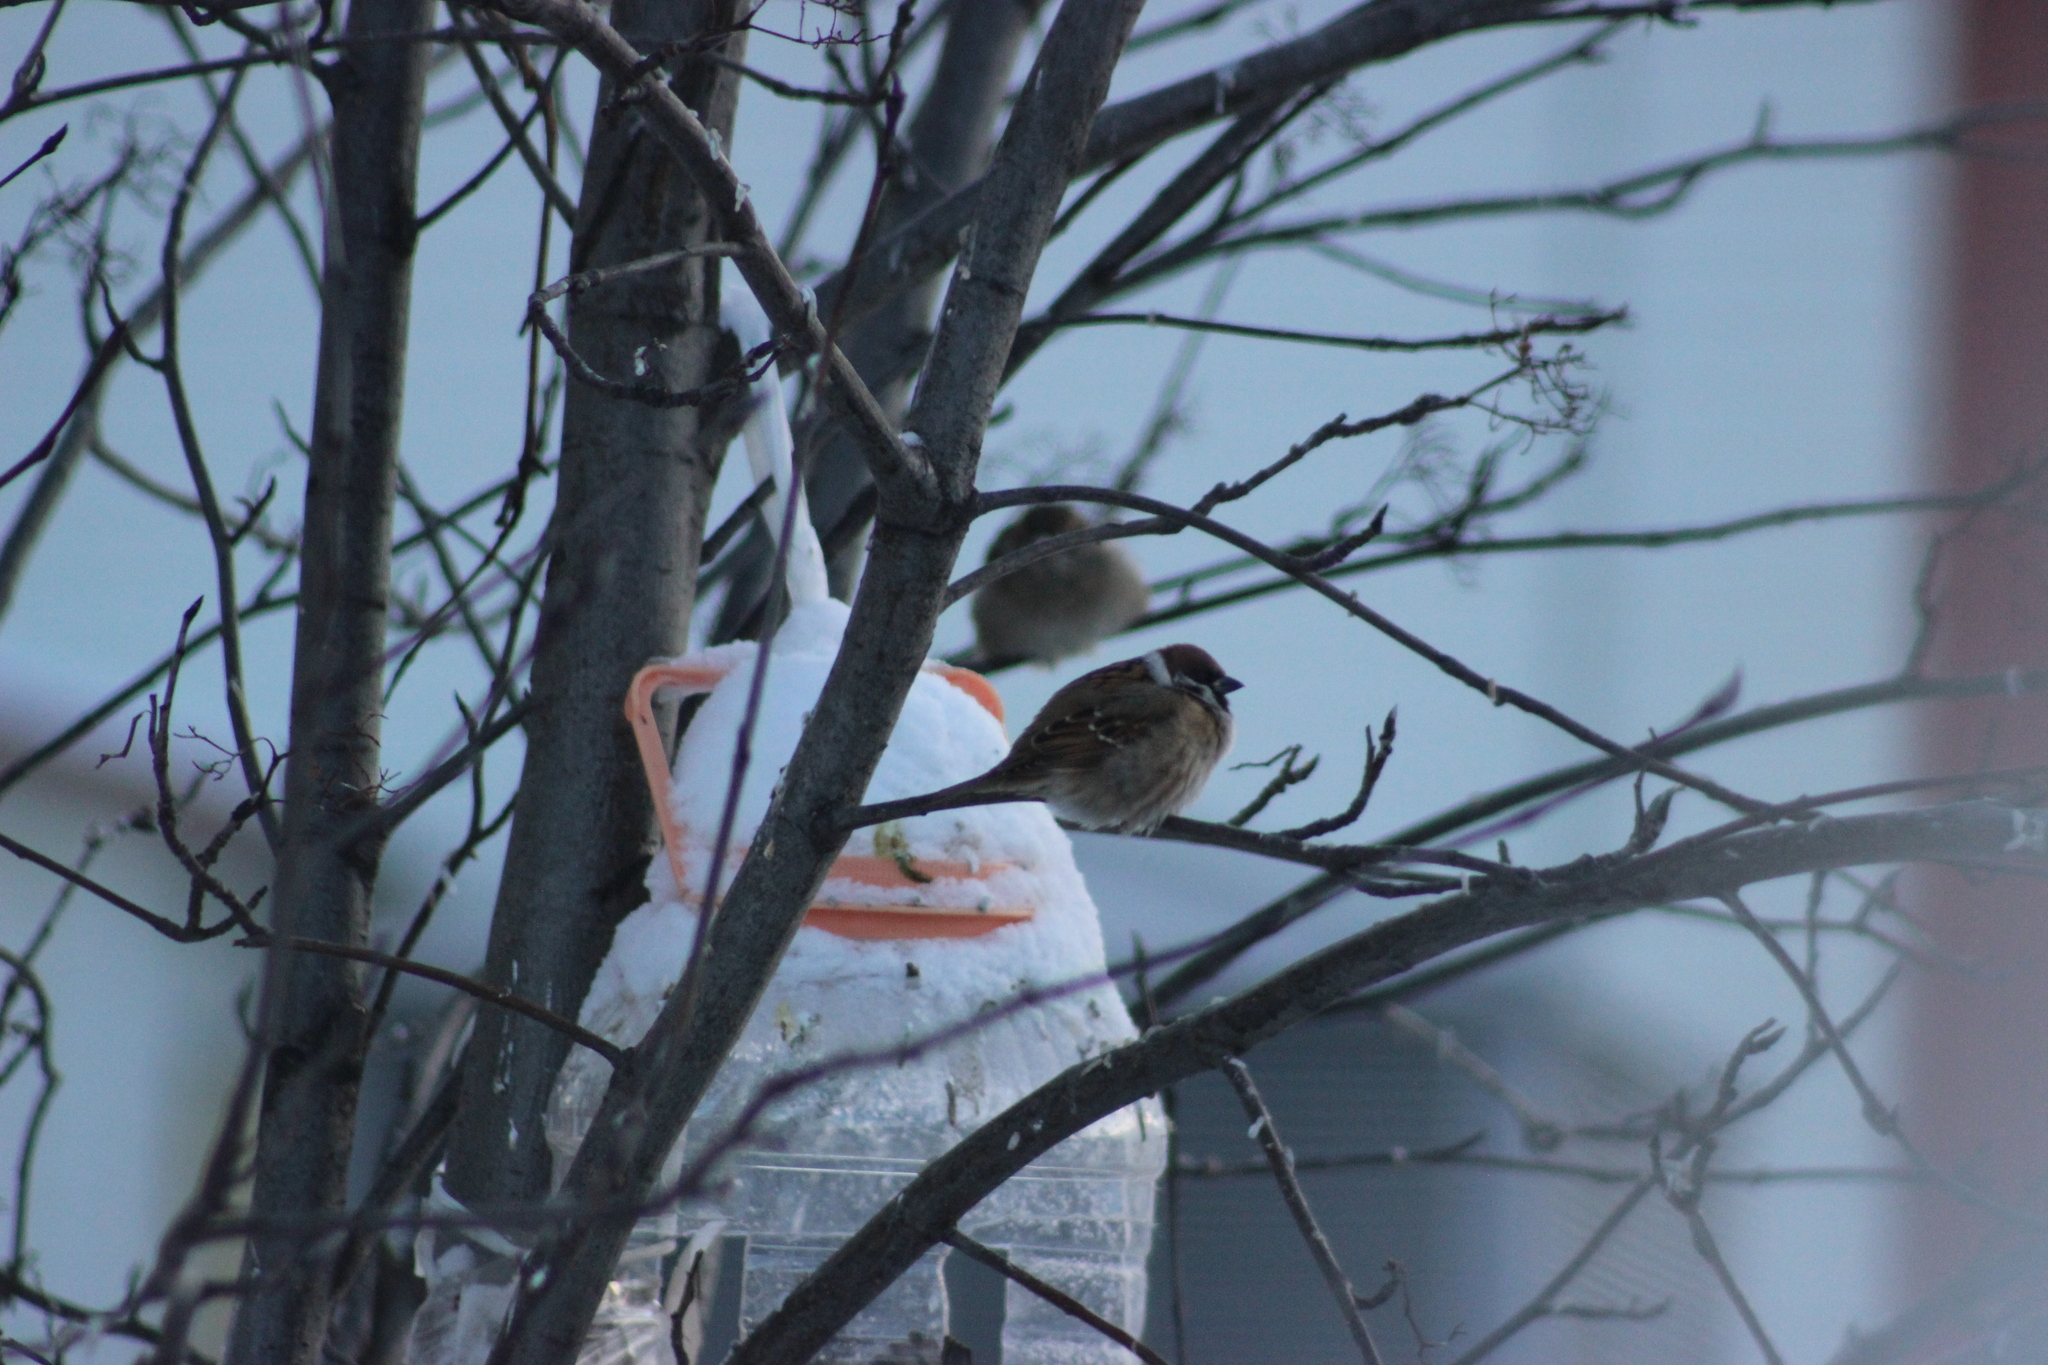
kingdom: Animalia
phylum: Chordata
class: Aves
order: Passeriformes
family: Passeridae
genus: Passer
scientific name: Passer montanus
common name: Eurasian tree sparrow
